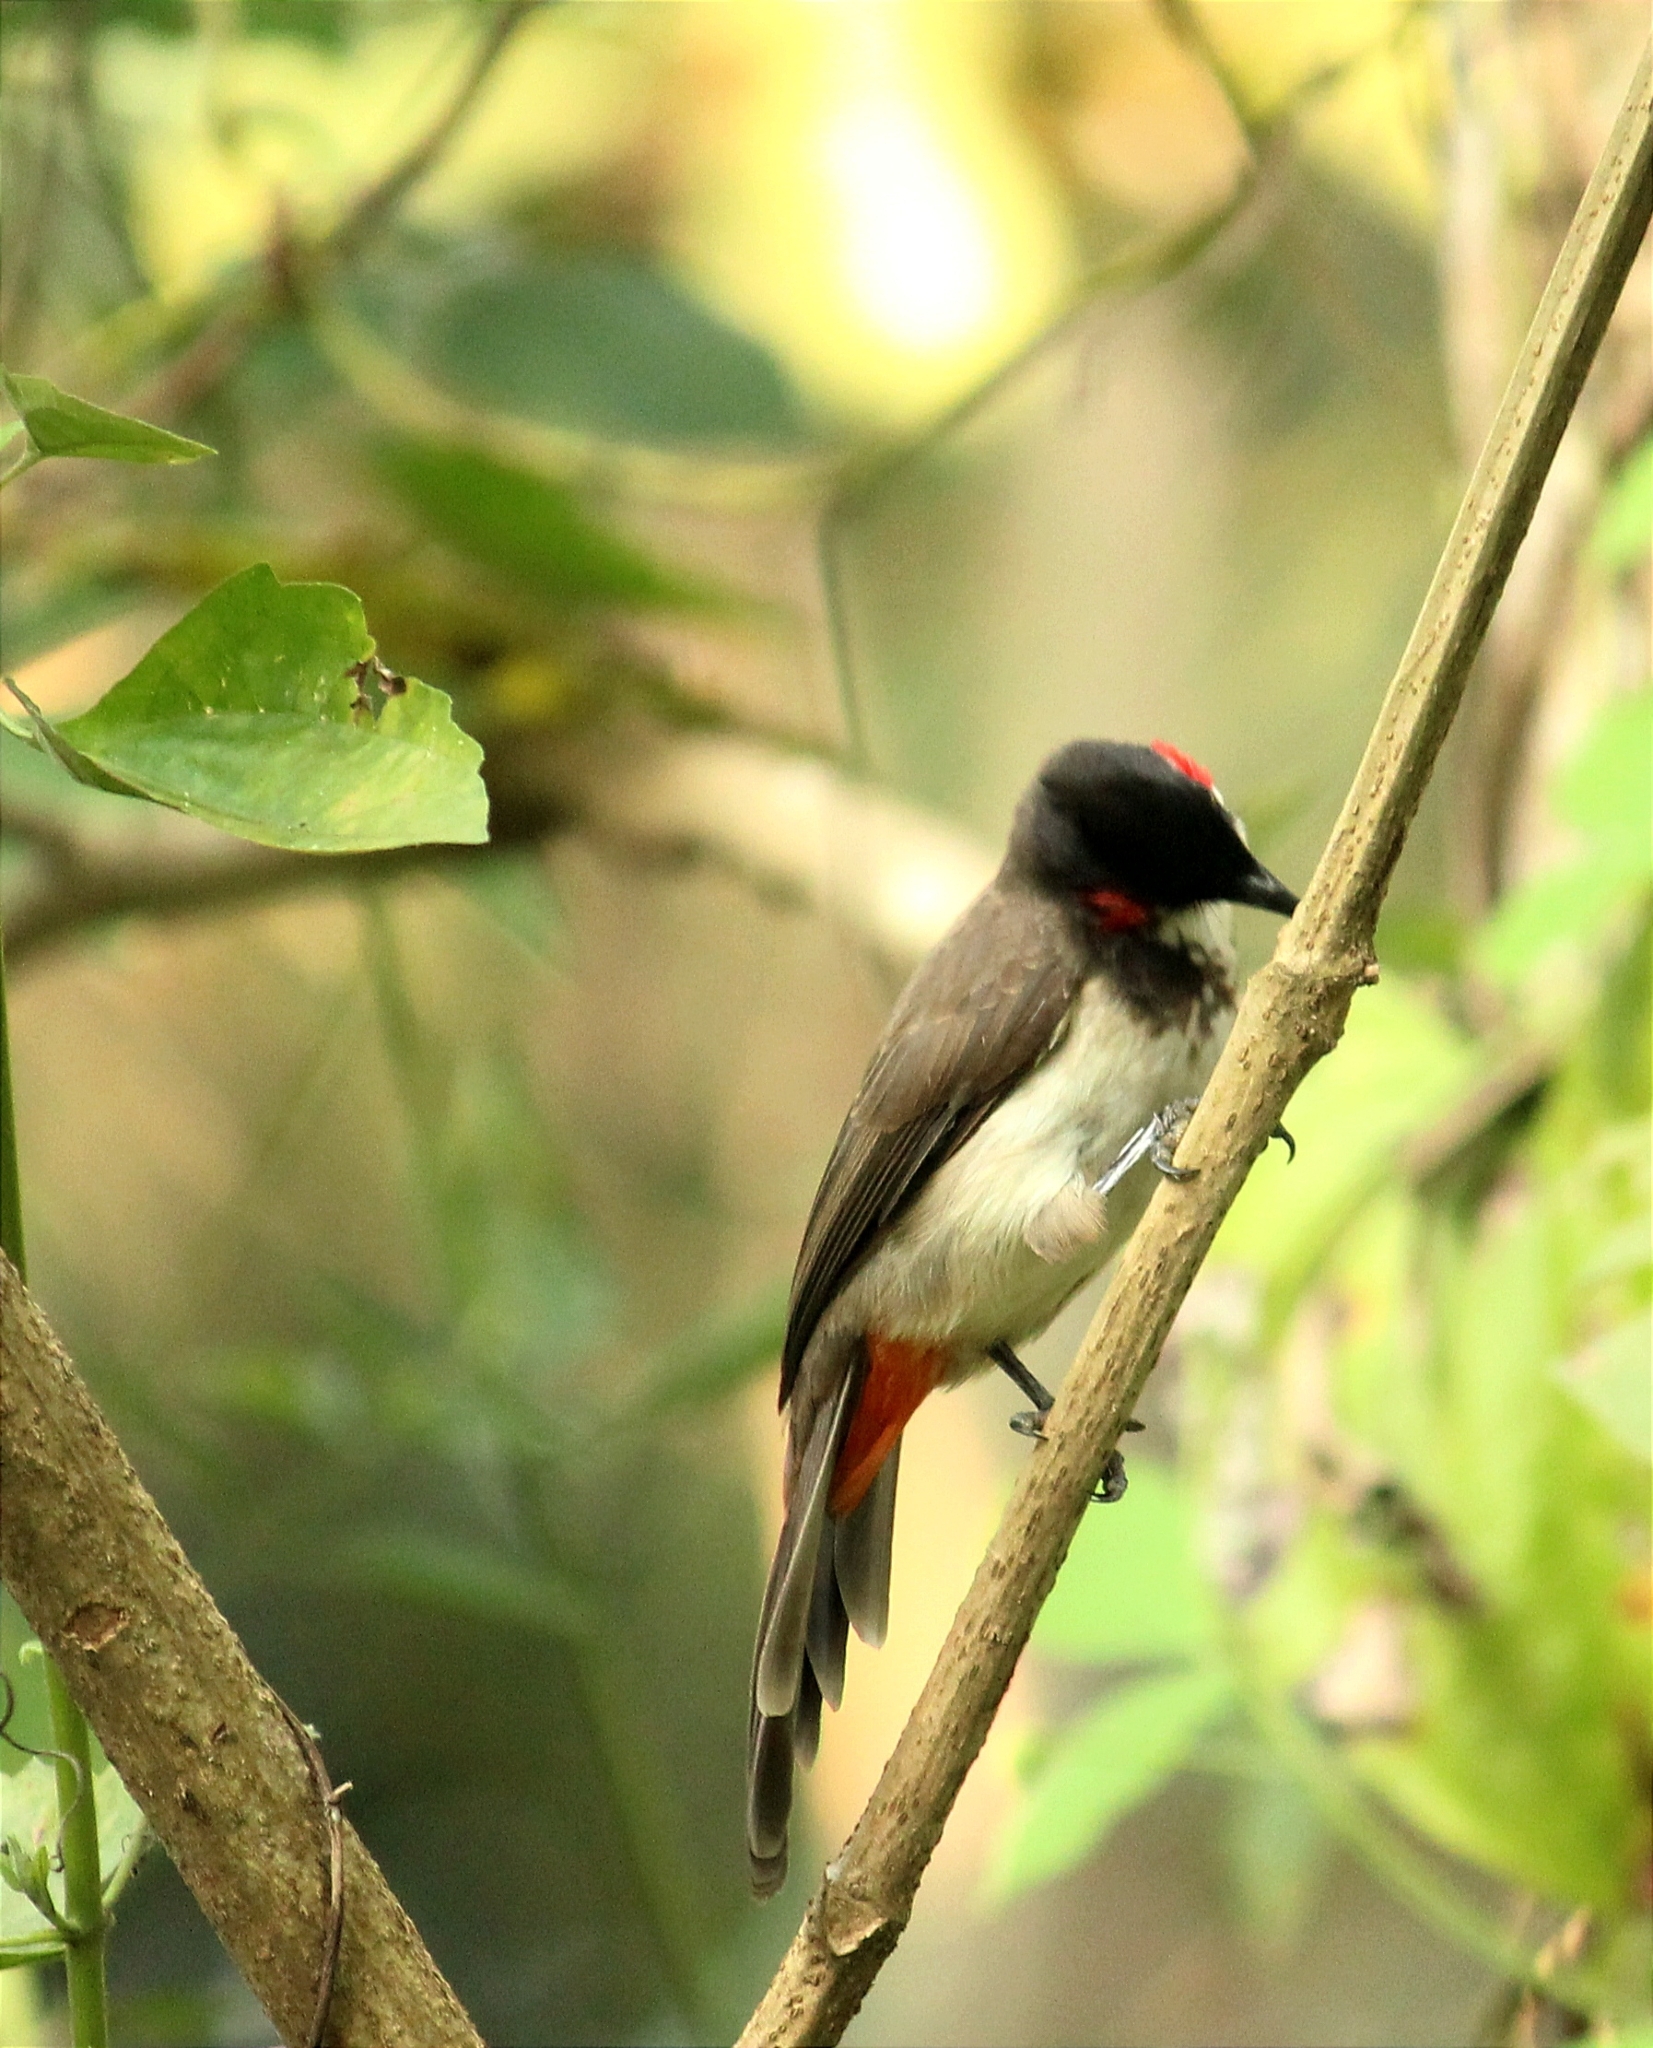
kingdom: Animalia
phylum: Chordata
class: Aves
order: Passeriformes
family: Pycnonotidae
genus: Pycnonotus
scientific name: Pycnonotus jocosus
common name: Red-whiskered bulbul
